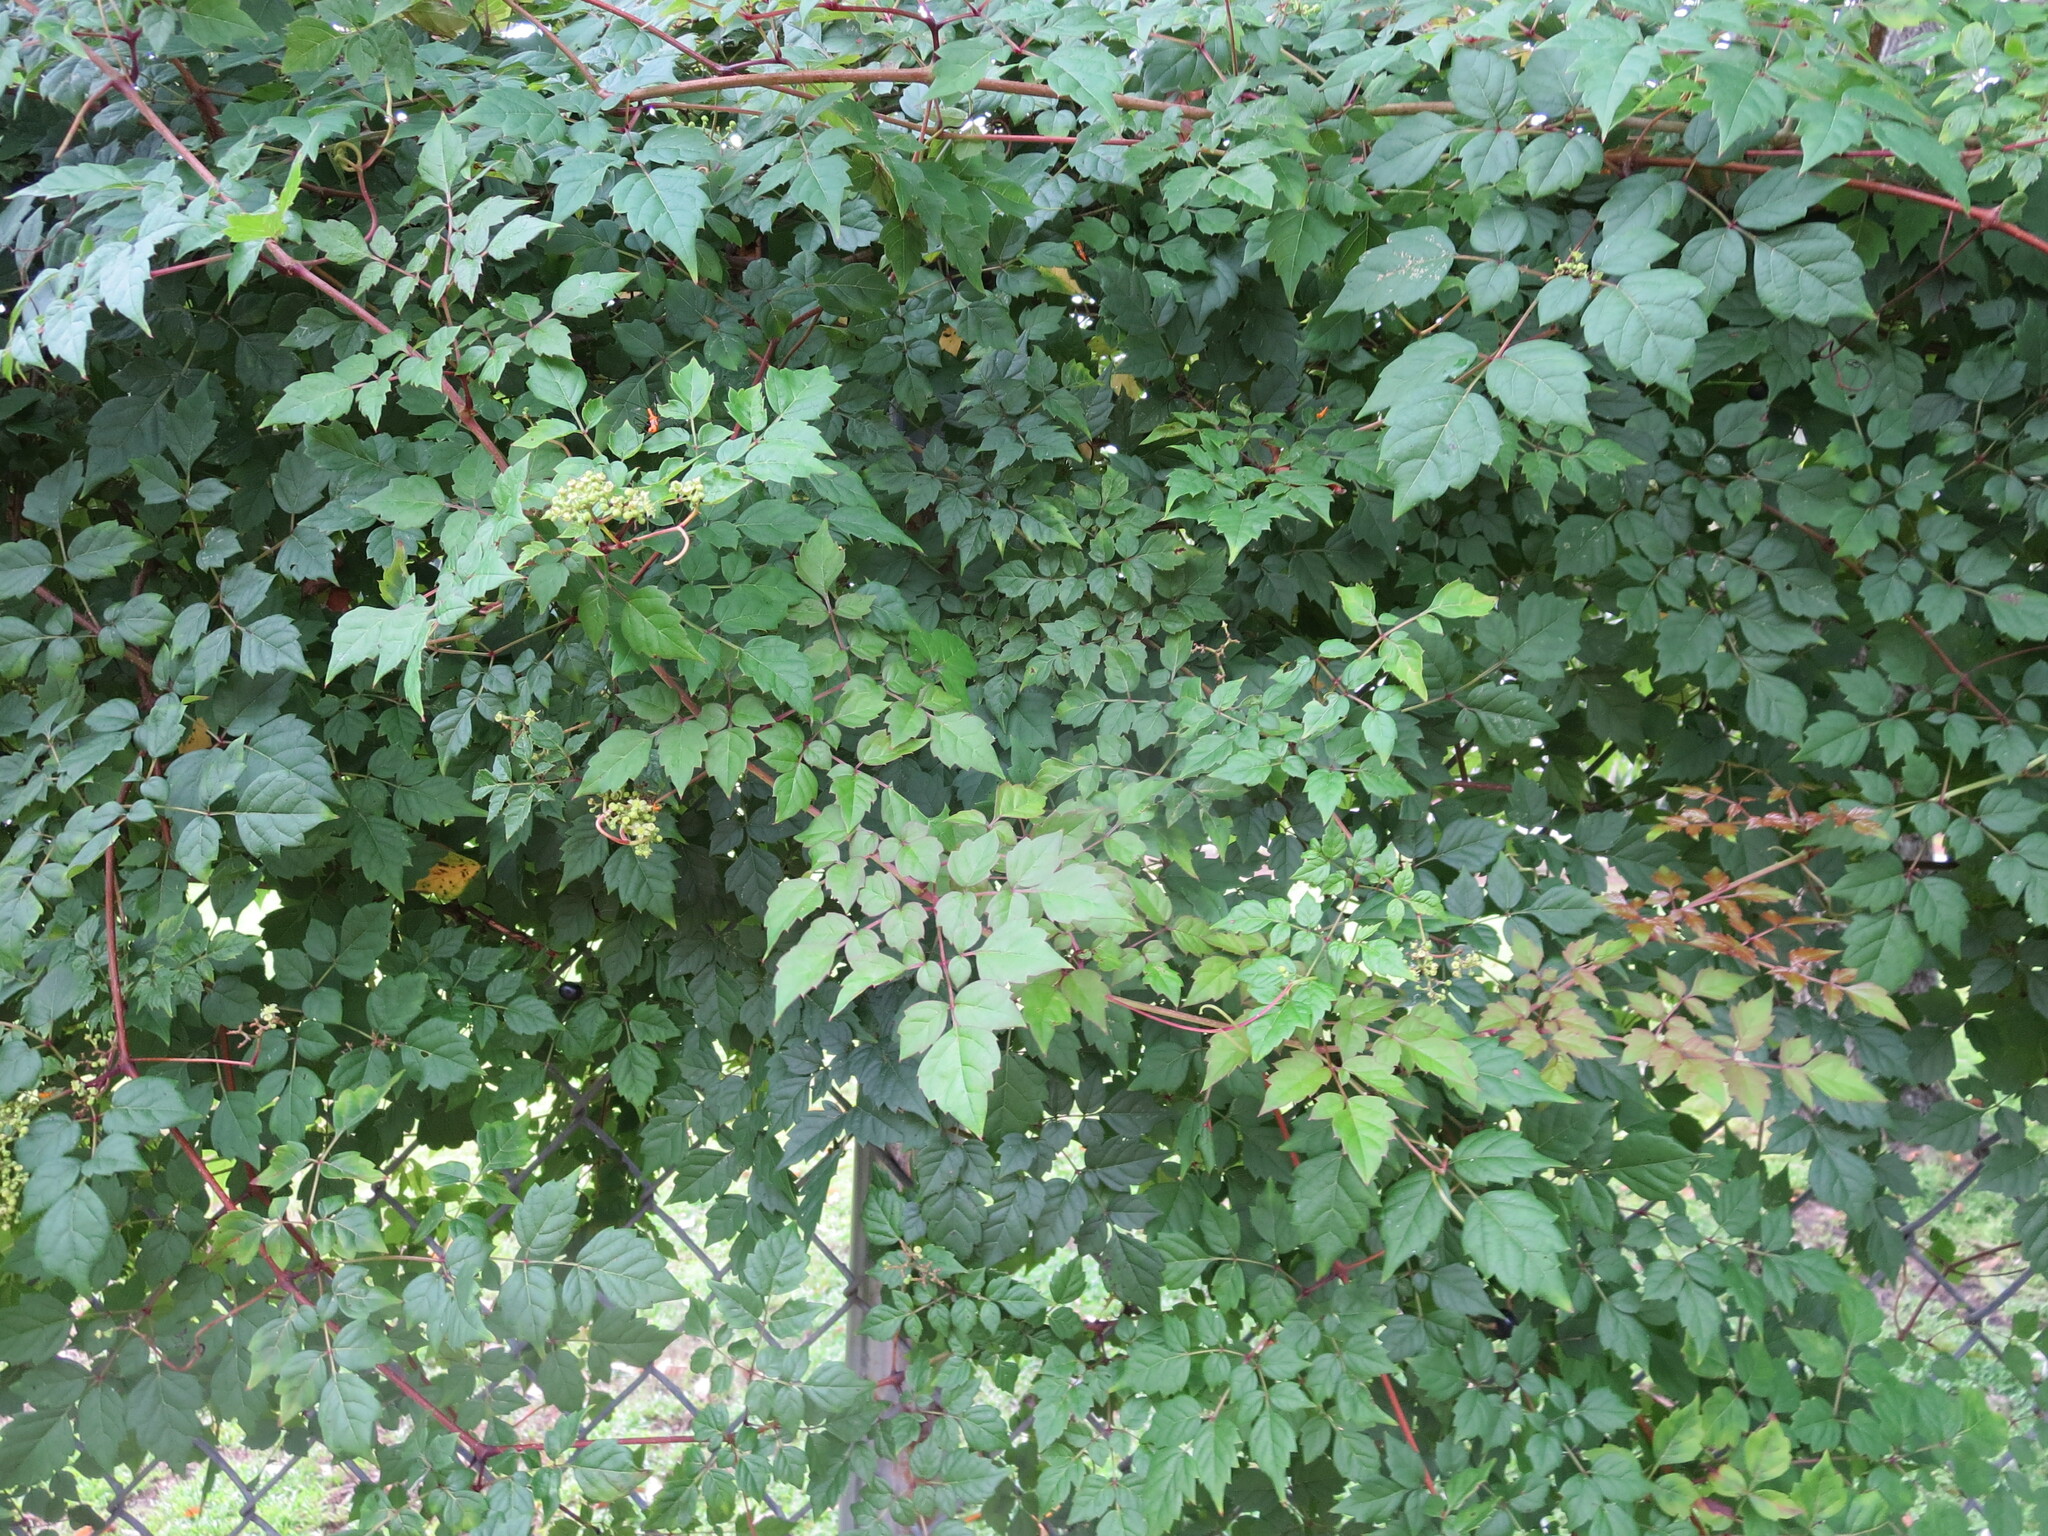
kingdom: Plantae
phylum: Tracheophyta
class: Magnoliopsida
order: Vitales
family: Vitaceae
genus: Nekemias
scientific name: Nekemias arborea
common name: Peppervine
